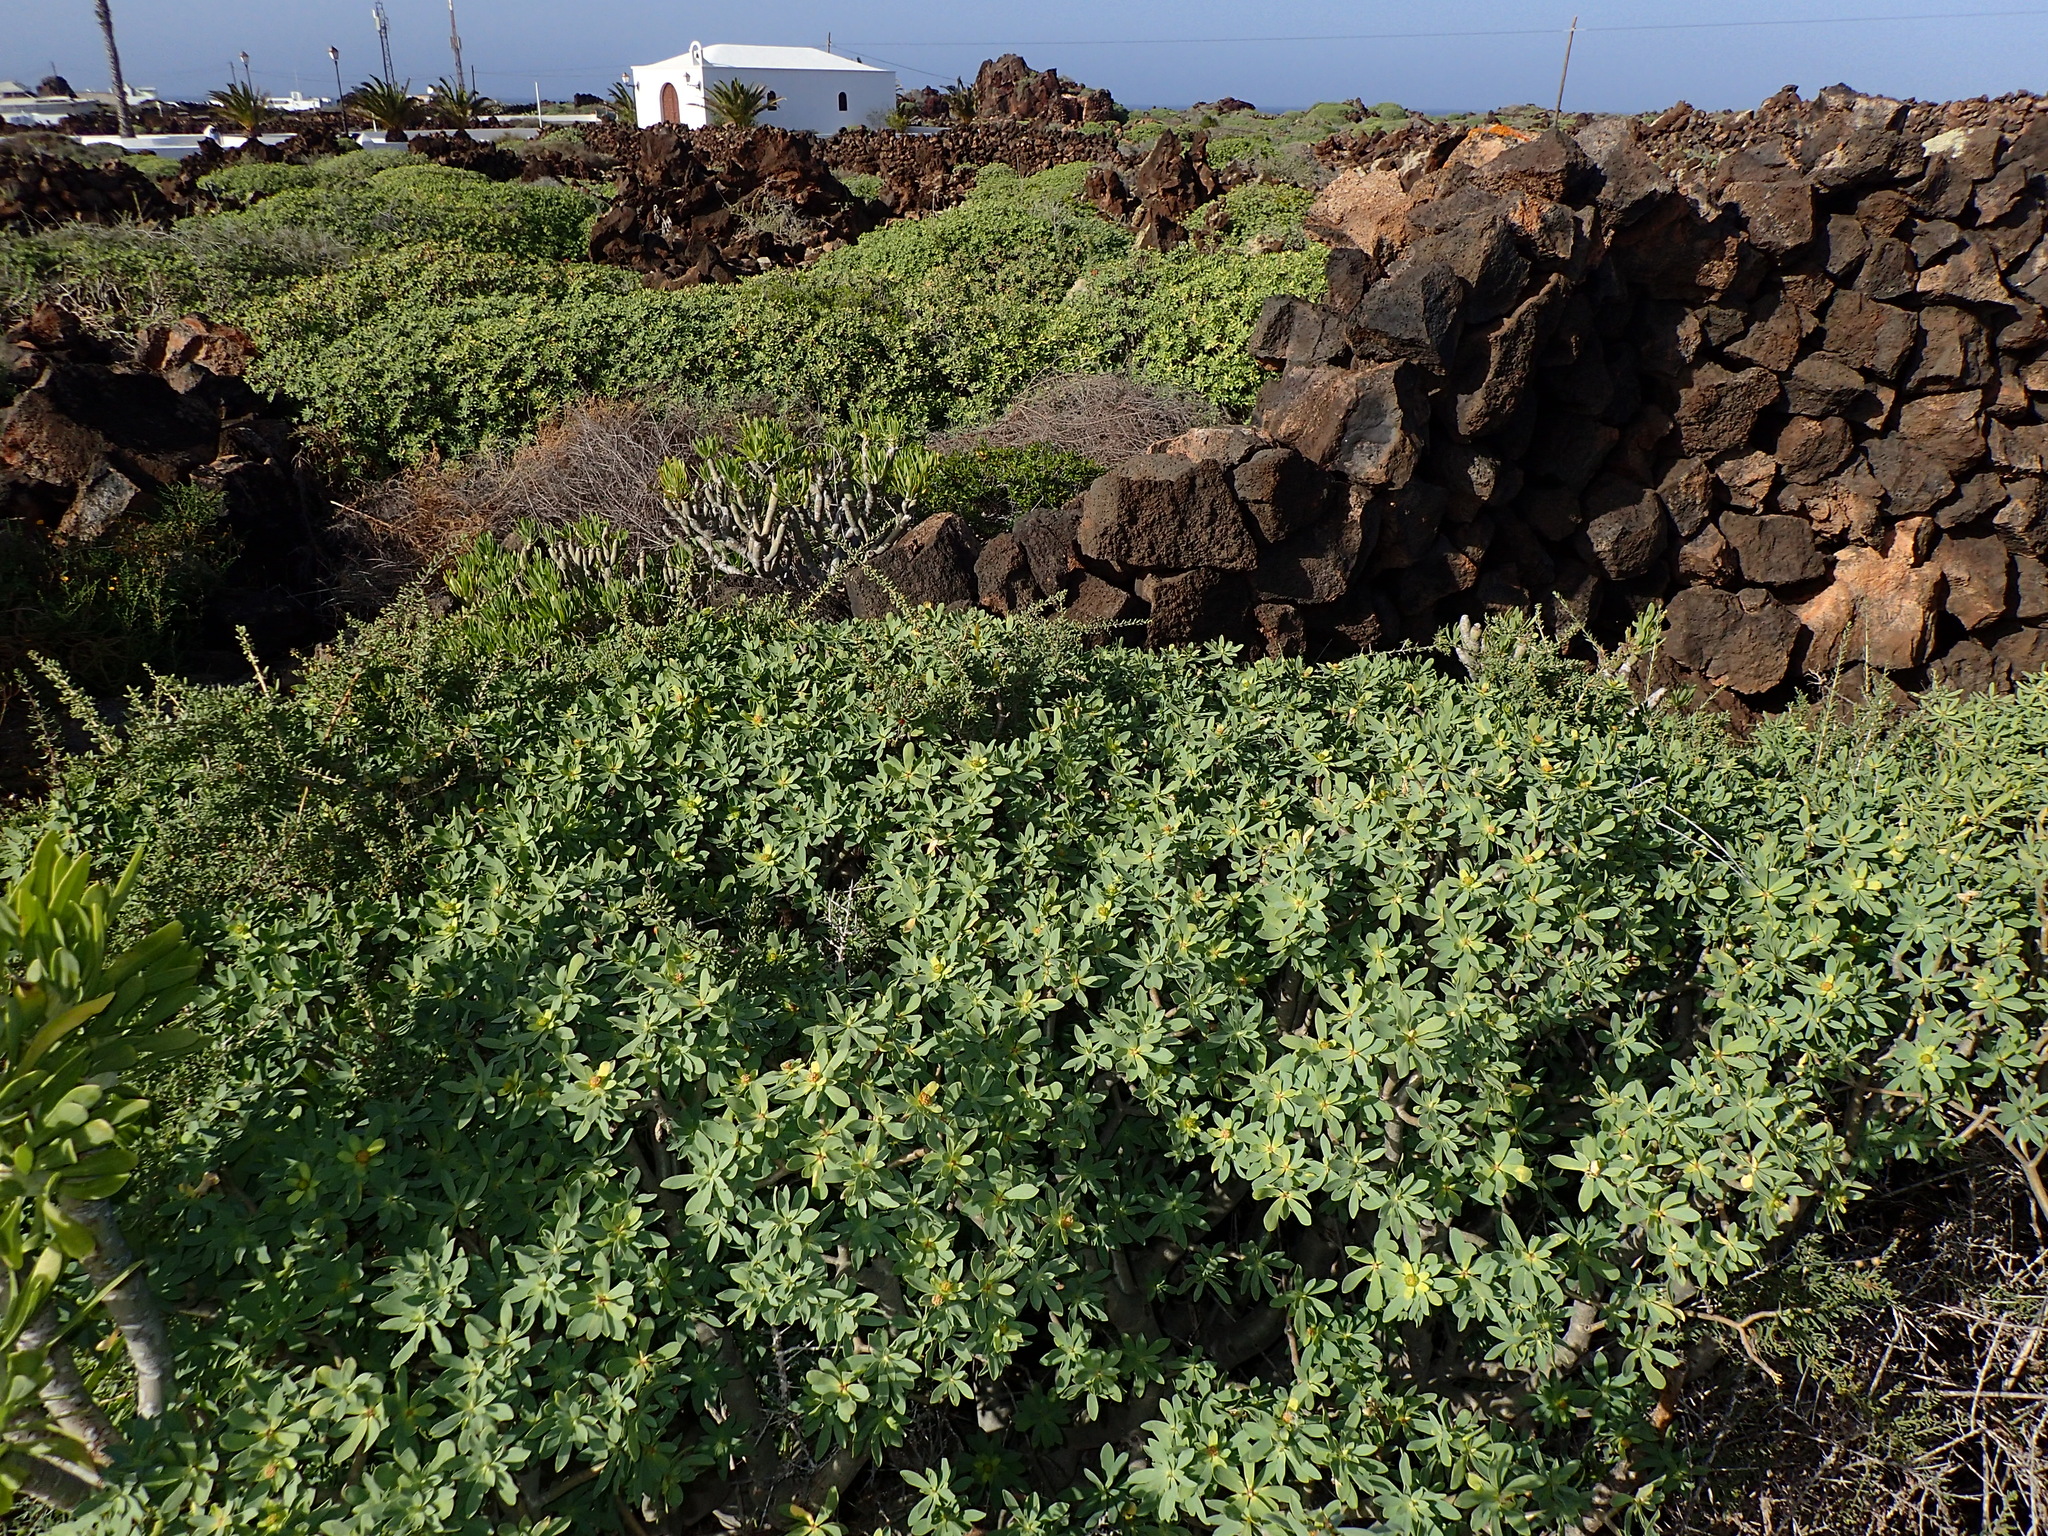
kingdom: Plantae
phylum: Tracheophyta
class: Magnoliopsida
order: Malpighiales
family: Euphorbiaceae
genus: Euphorbia
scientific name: Euphorbia balsamifera
